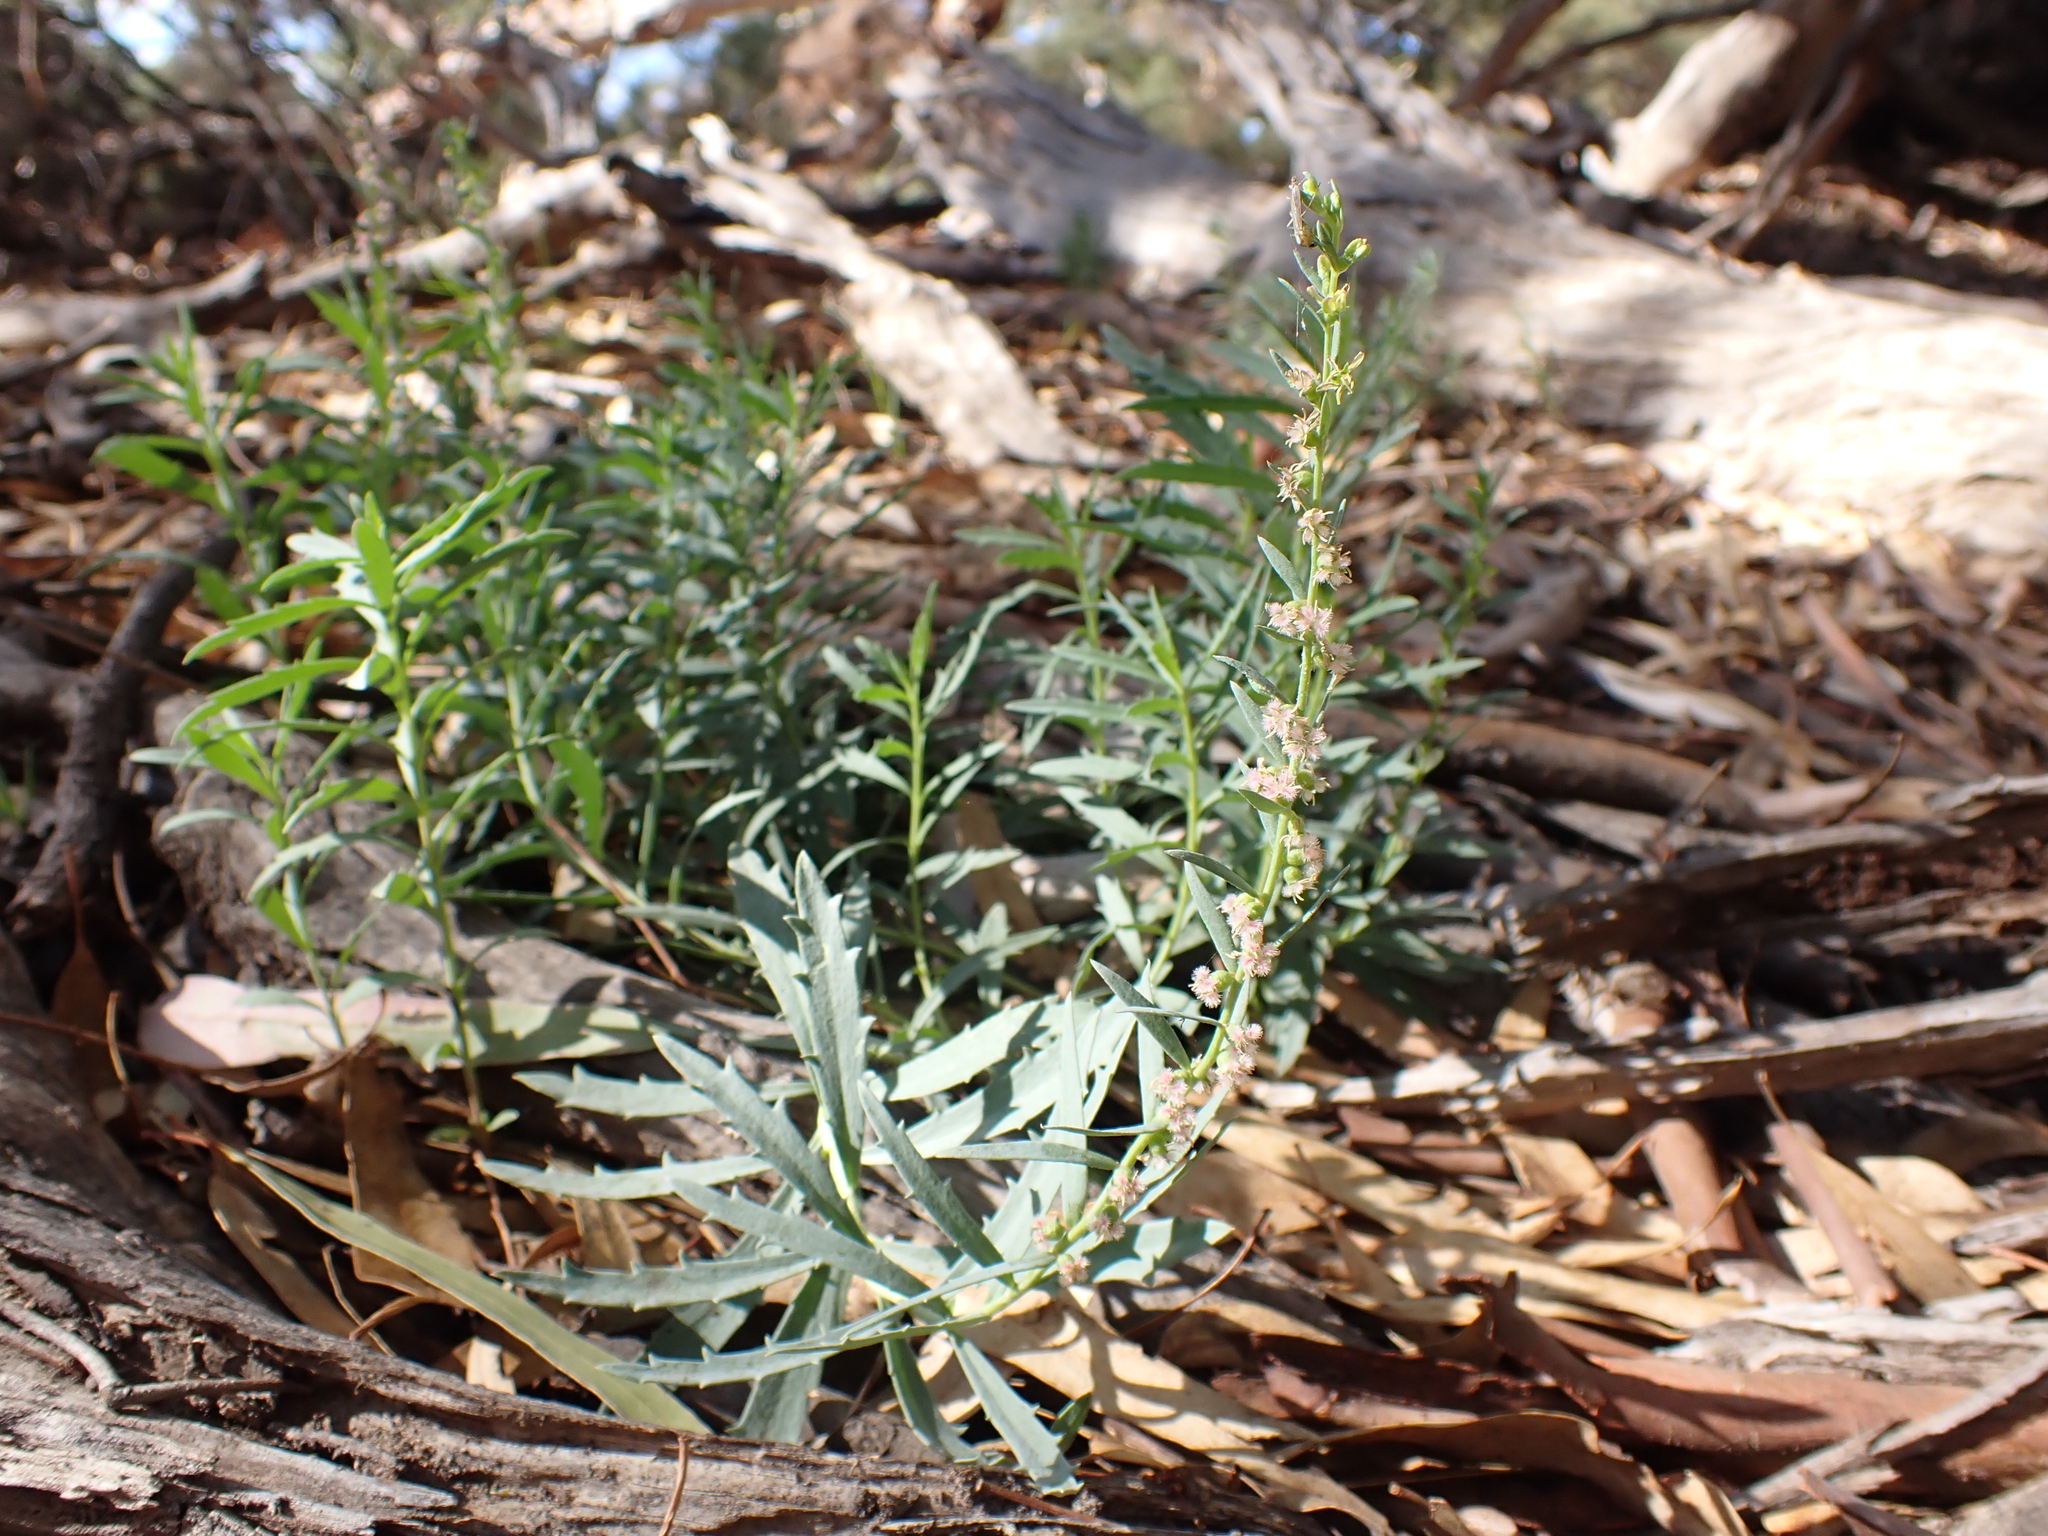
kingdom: Plantae
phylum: Tracheophyta
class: Magnoliopsida
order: Saxifragales
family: Haloragaceae
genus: Haloragis
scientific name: Haloragis glauca
